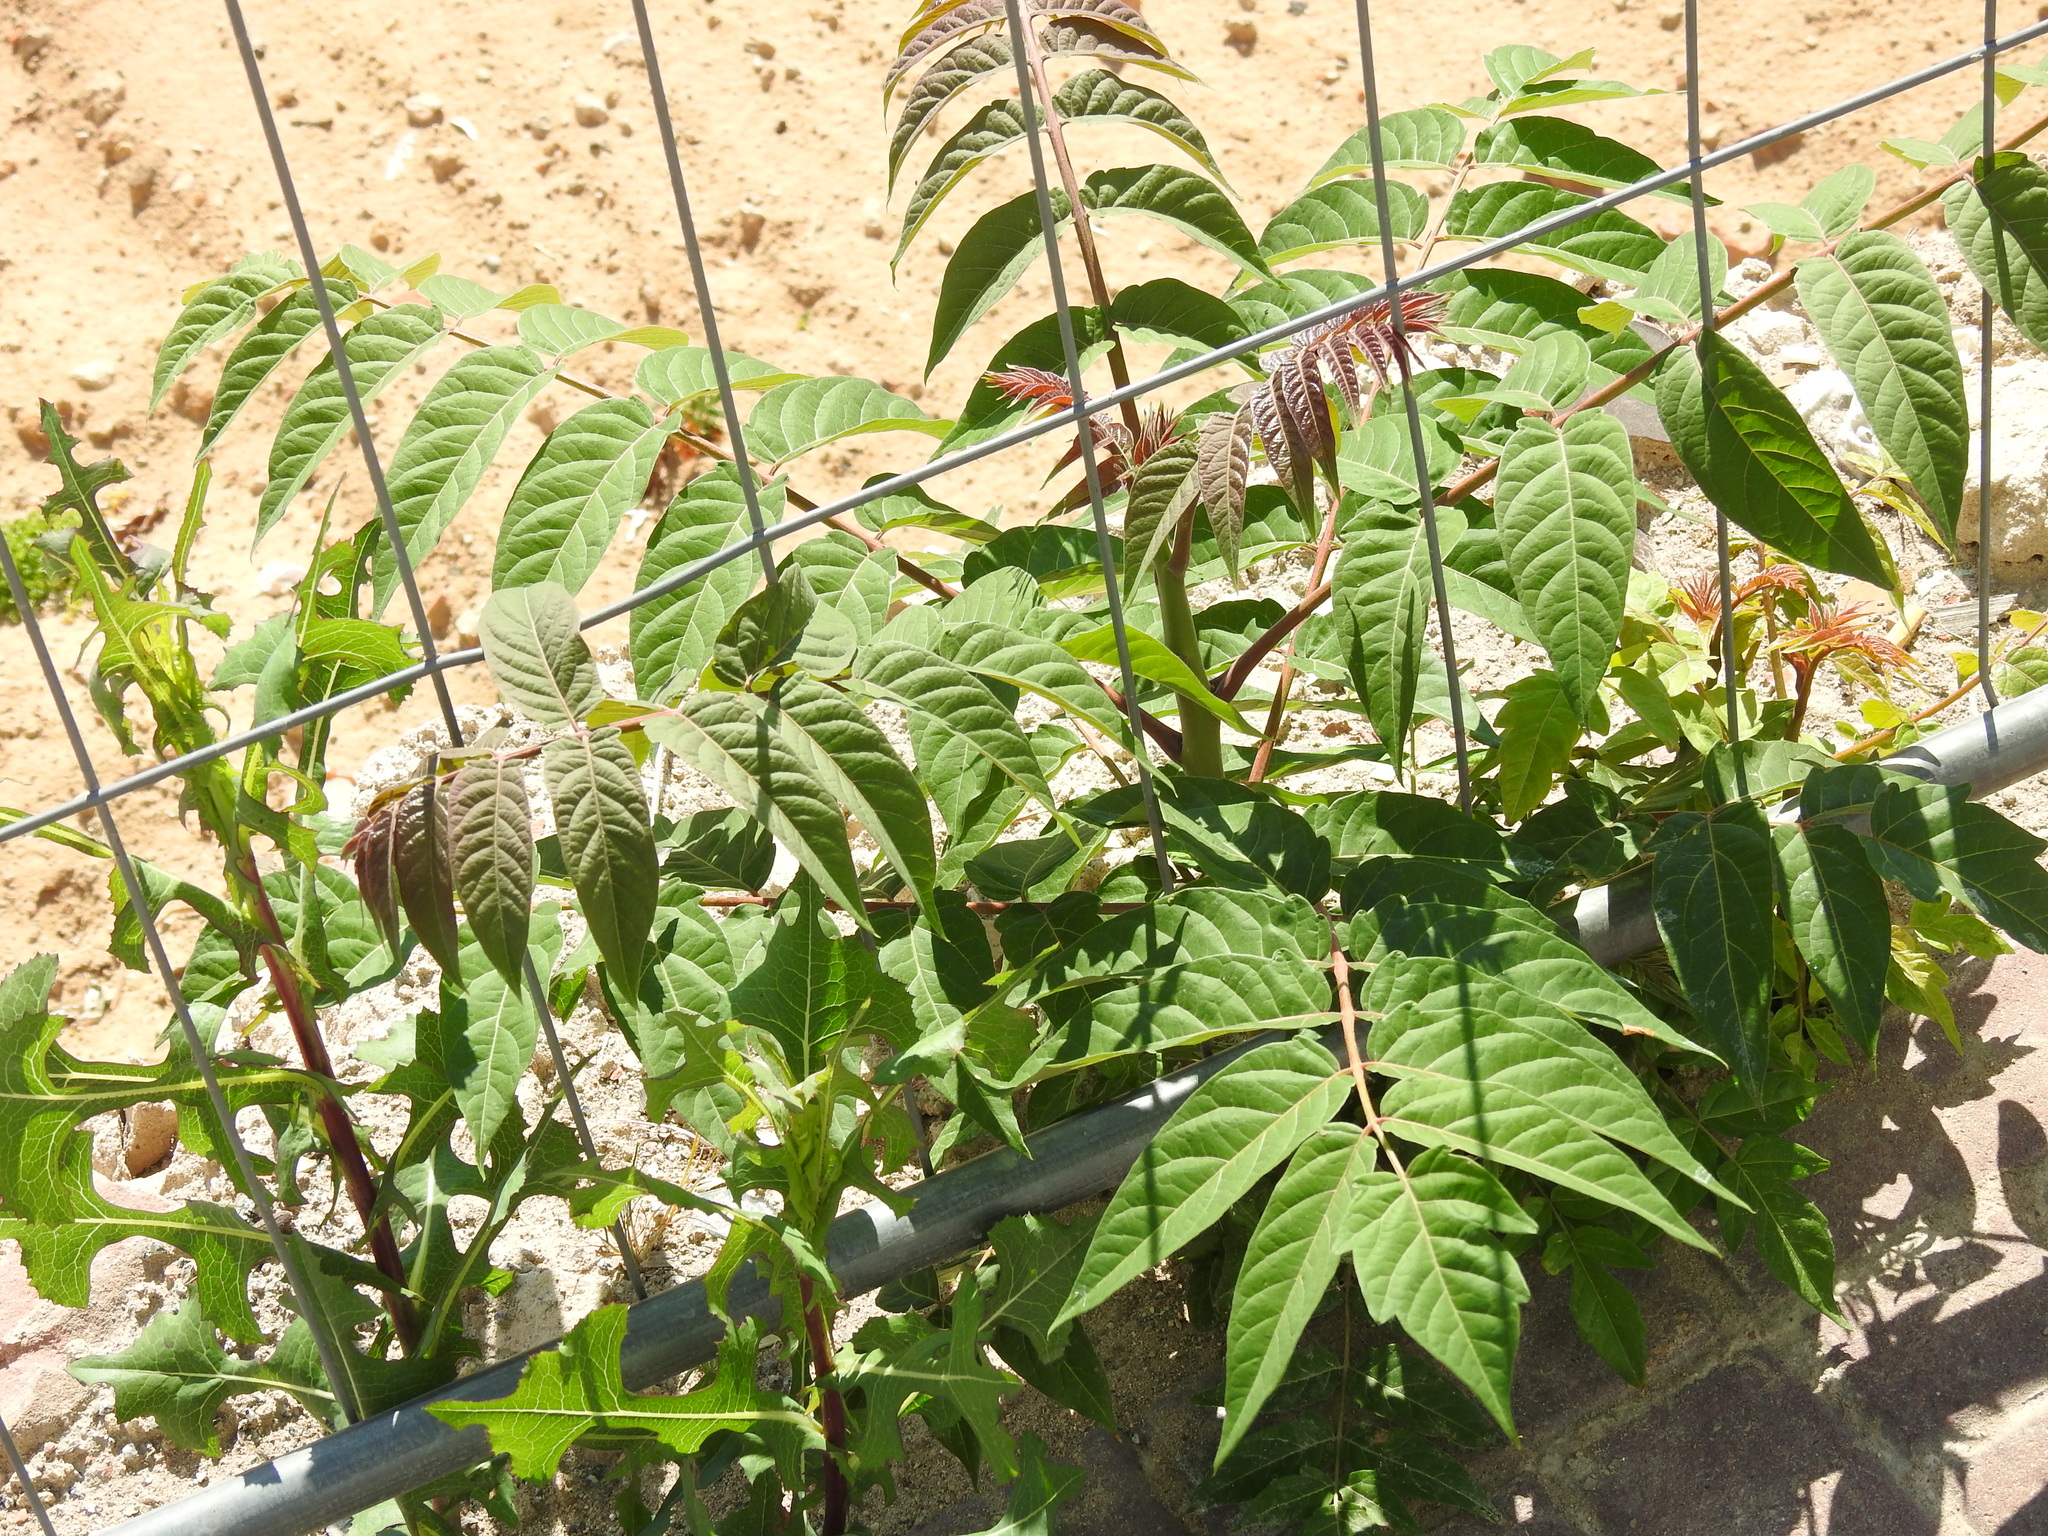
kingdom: Plantae
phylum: Tracheophyta
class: Magnoliopsida
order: Sapindales
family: Simaroubaceae
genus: Ailanthus
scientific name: Ailanthus altissima
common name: Tree-of-heaven
